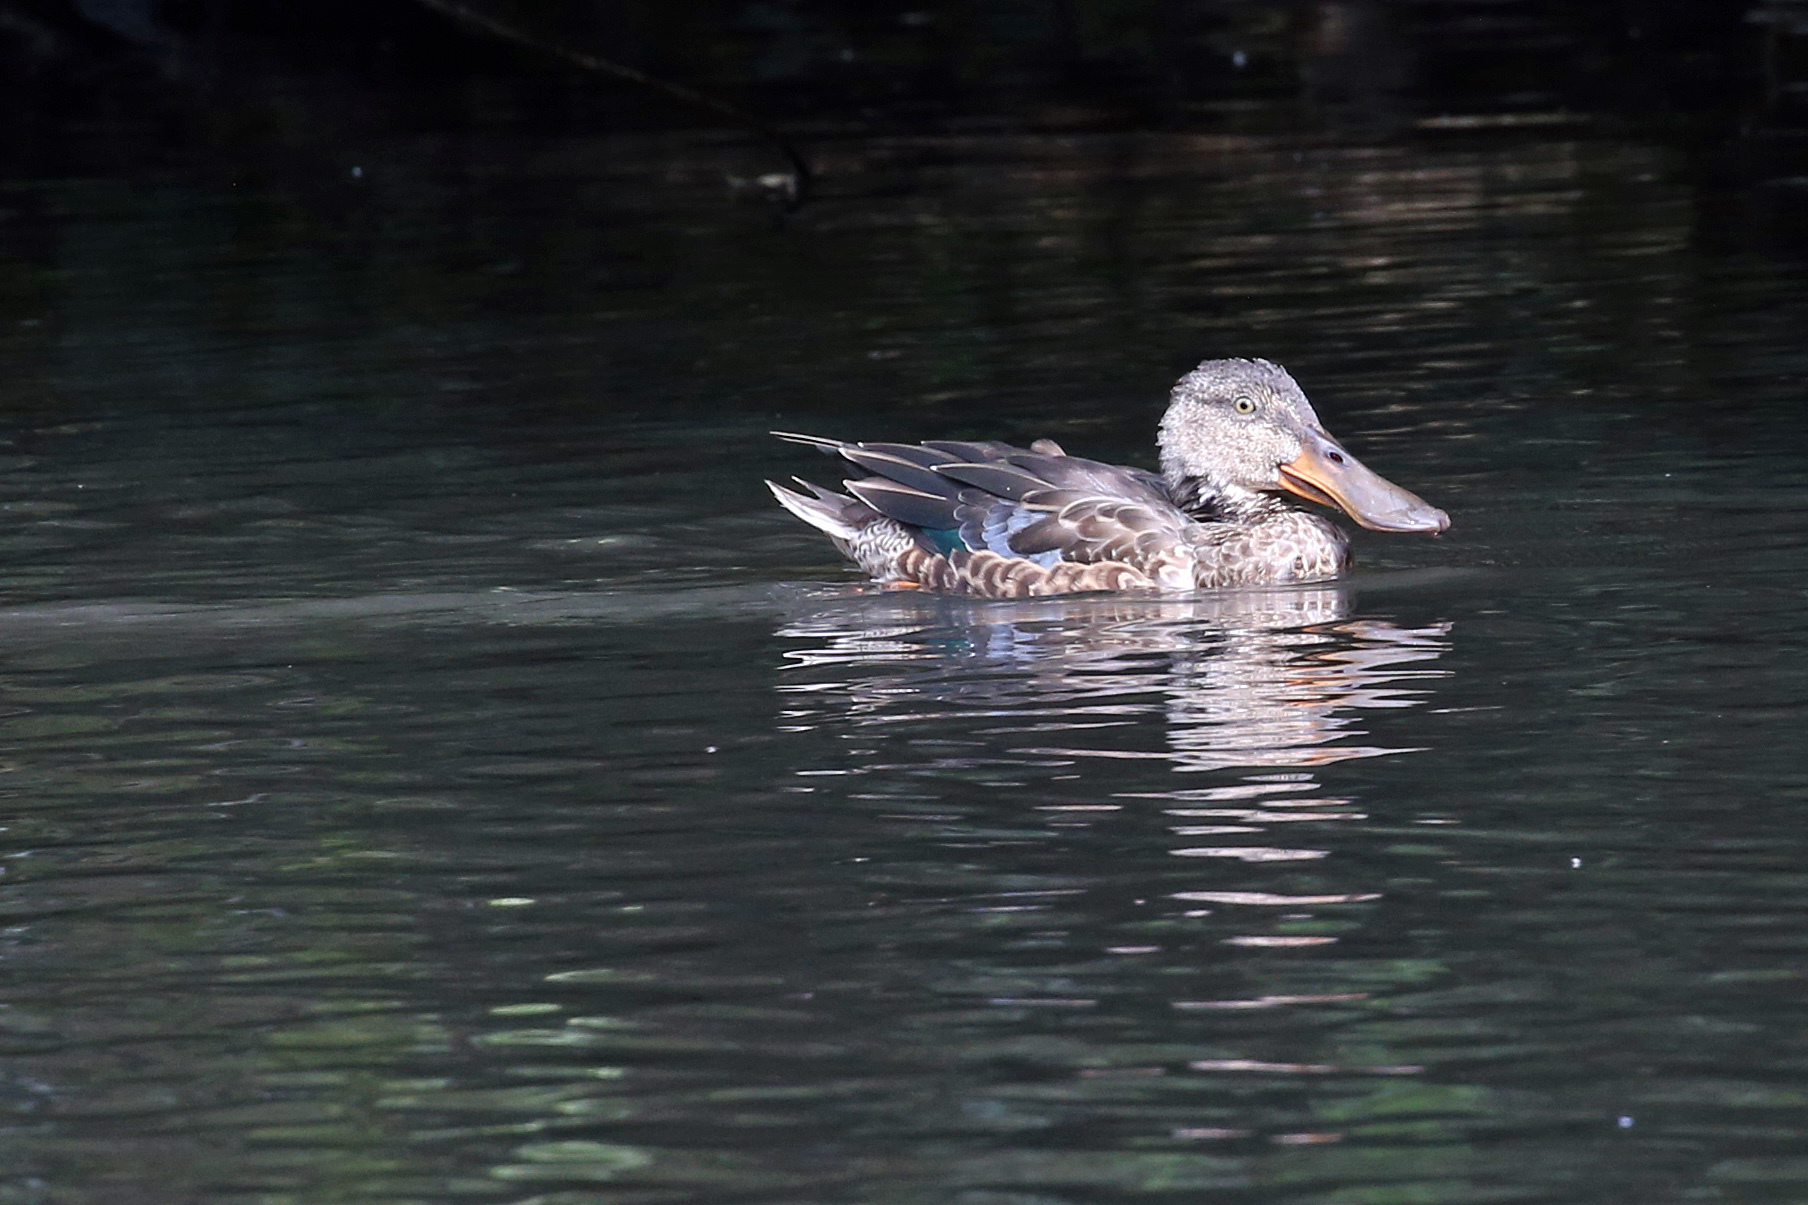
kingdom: Animalia
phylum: Chordata
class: Aves
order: Anseriformes
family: Anatidae
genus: Spatula
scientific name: Spatula clypeata
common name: Northern shoveler
